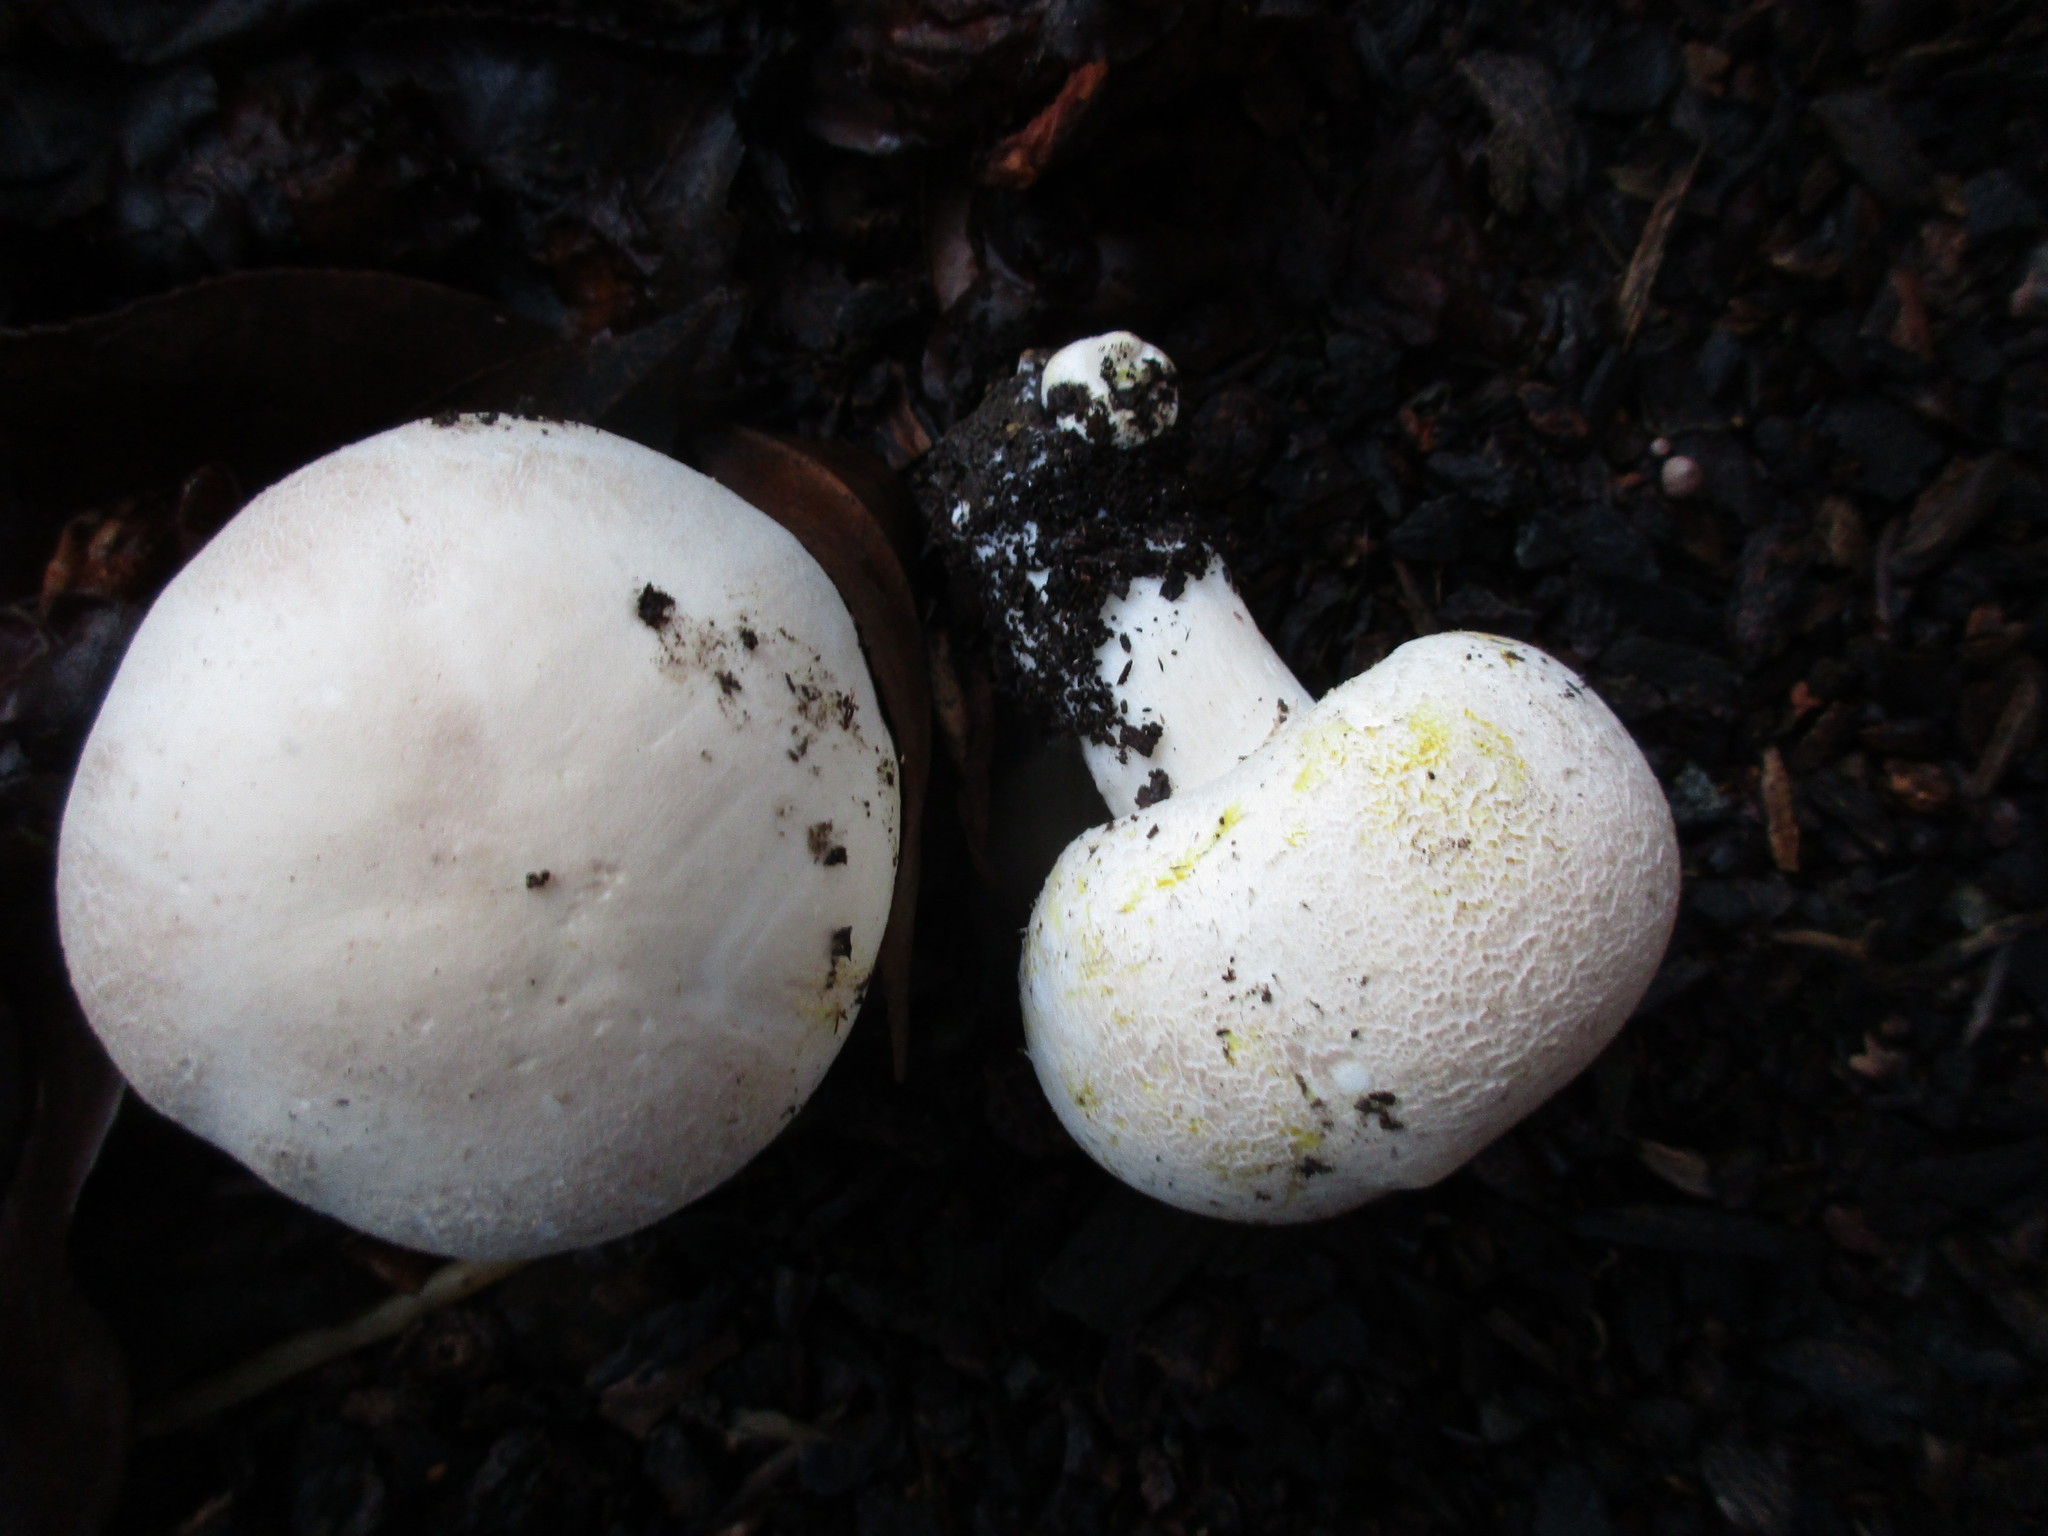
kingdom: Fungi
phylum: Basidiomycota
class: Agaricomycetes
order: Agaricales
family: Agaricaceae
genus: Agaricus
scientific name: Agaricus xanthodermus
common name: Yellow stainer
